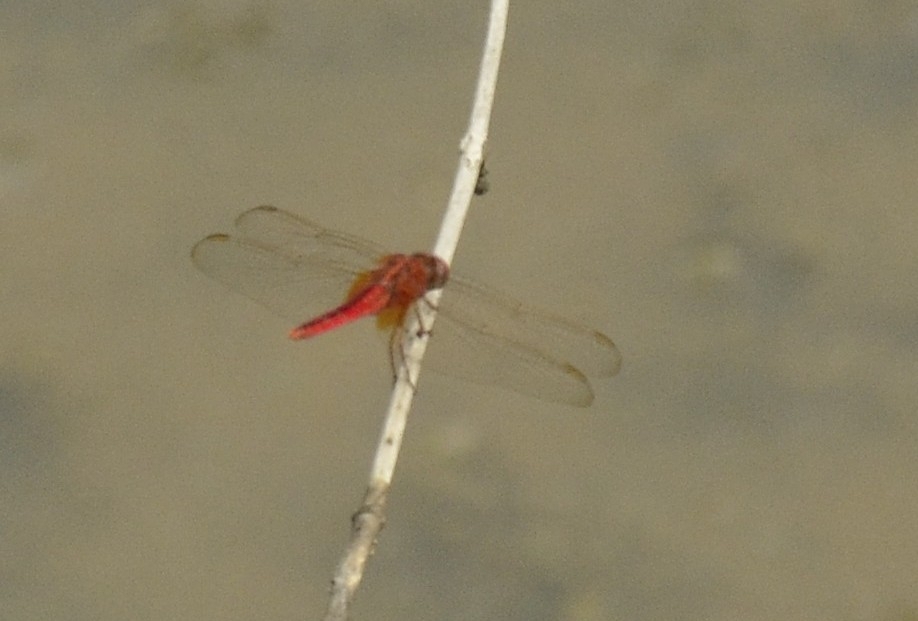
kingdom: Animalia
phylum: Arthropoda
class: Insecta
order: Odonata
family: Libellulidae
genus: Crocothemis
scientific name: Crocothemis servilia
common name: Scarlet skimmer
